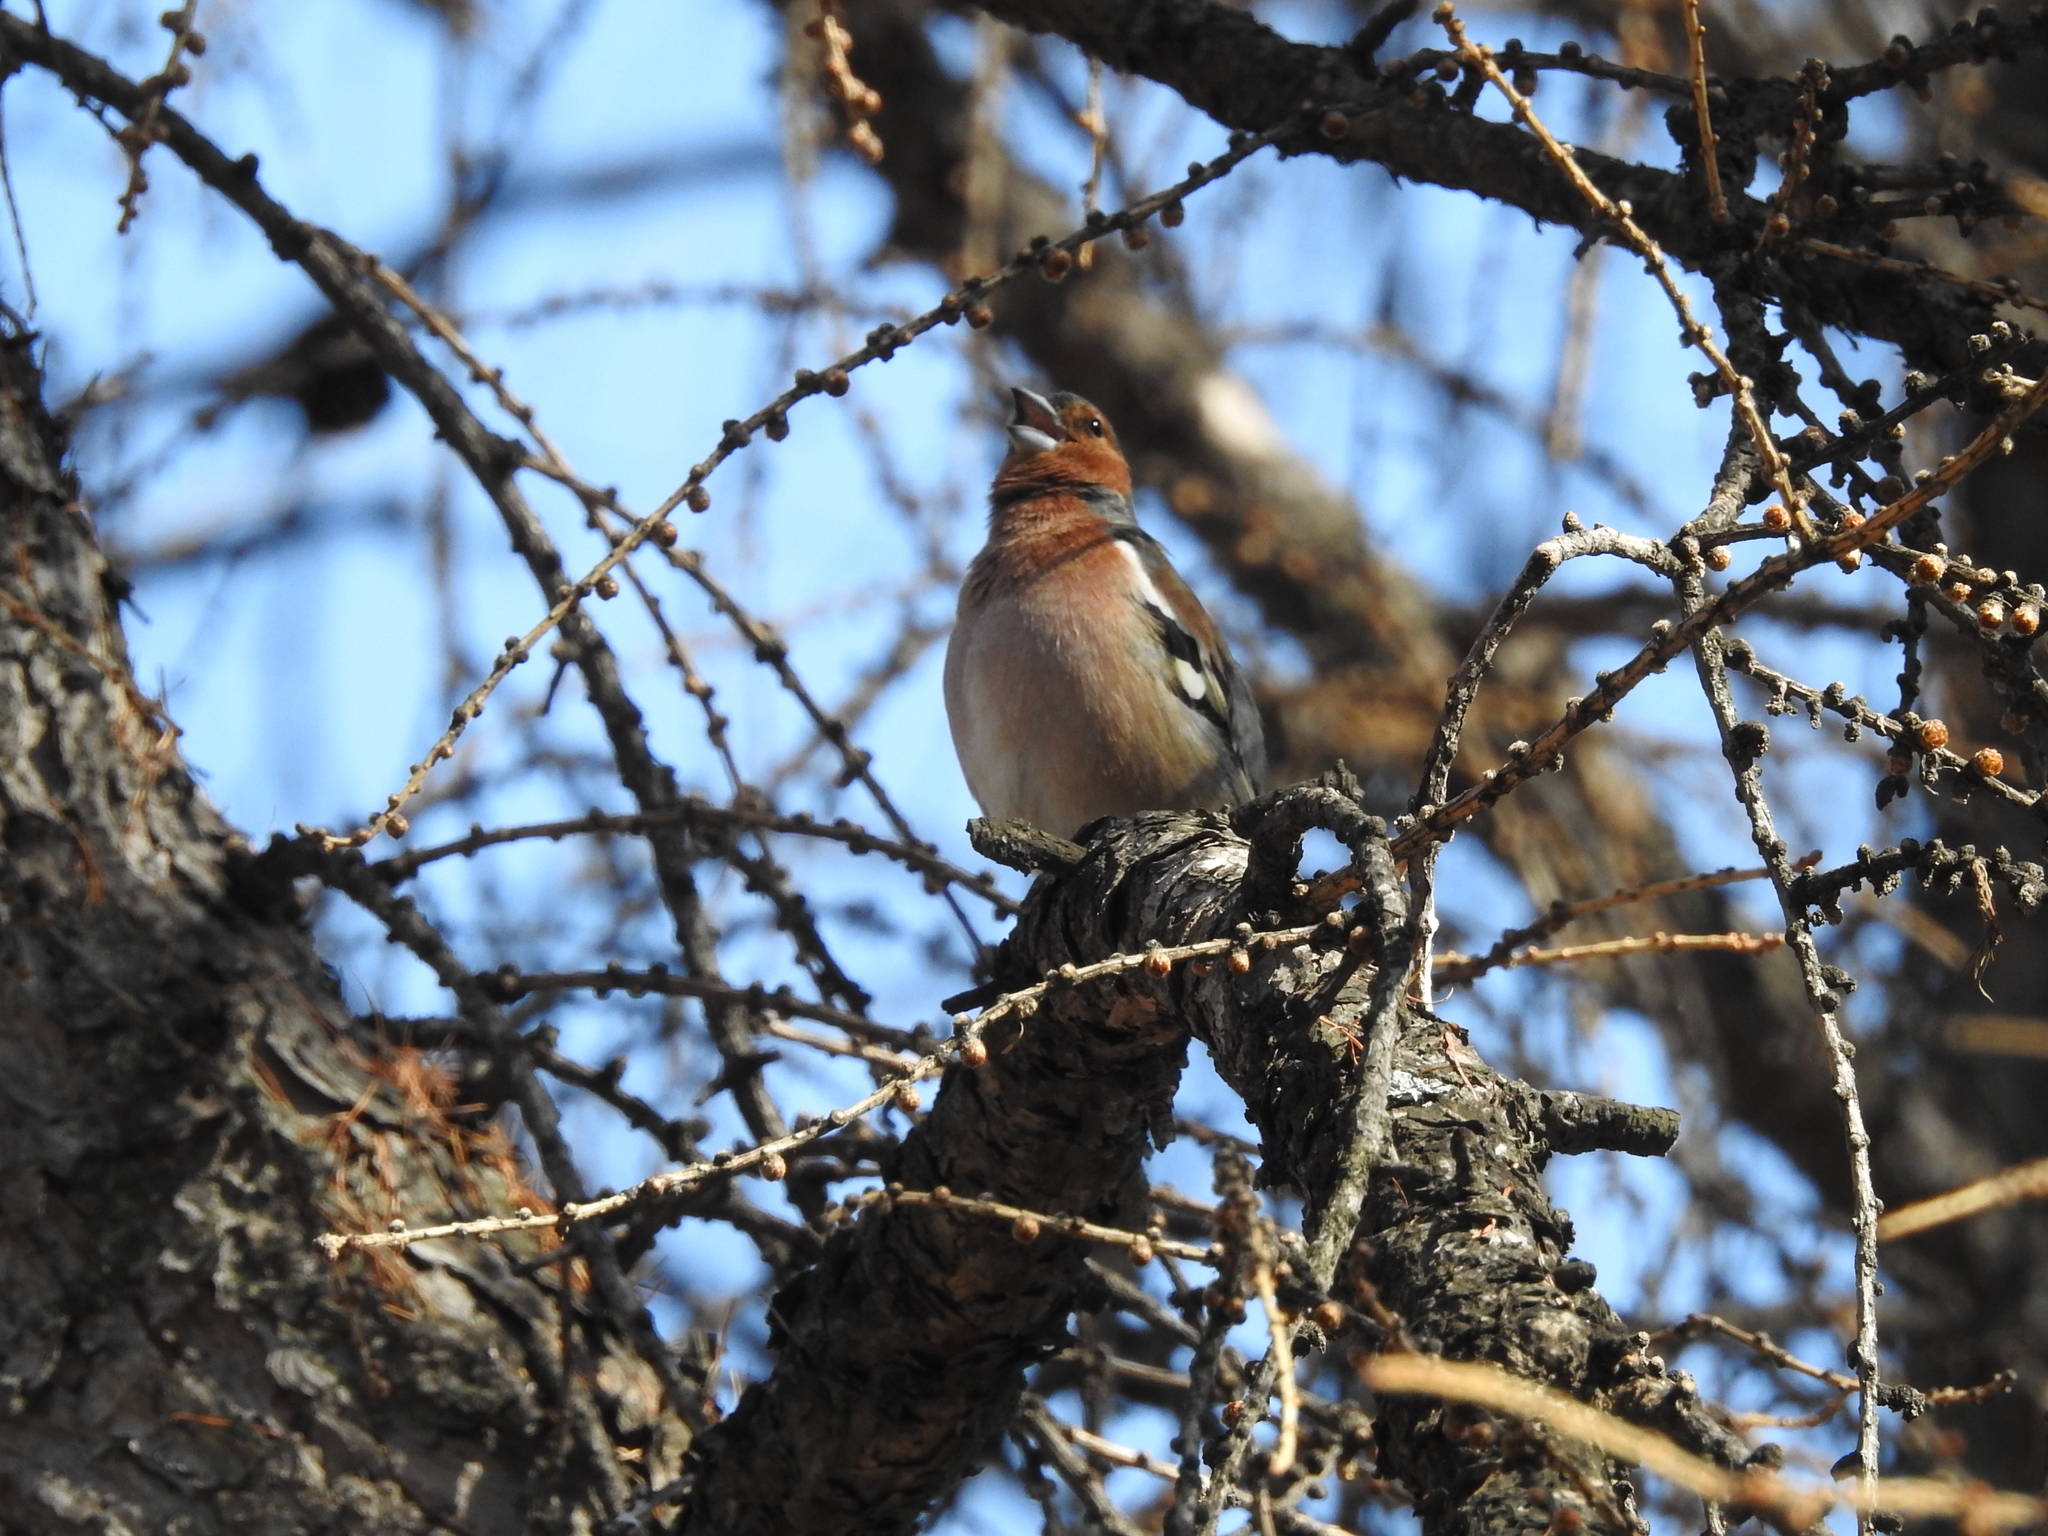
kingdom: Animalia
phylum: Chordata
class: Aves
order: Passeriformes
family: Fringillidae
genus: Fringilla
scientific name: Fringilla coelebs
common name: Common chaffinch
